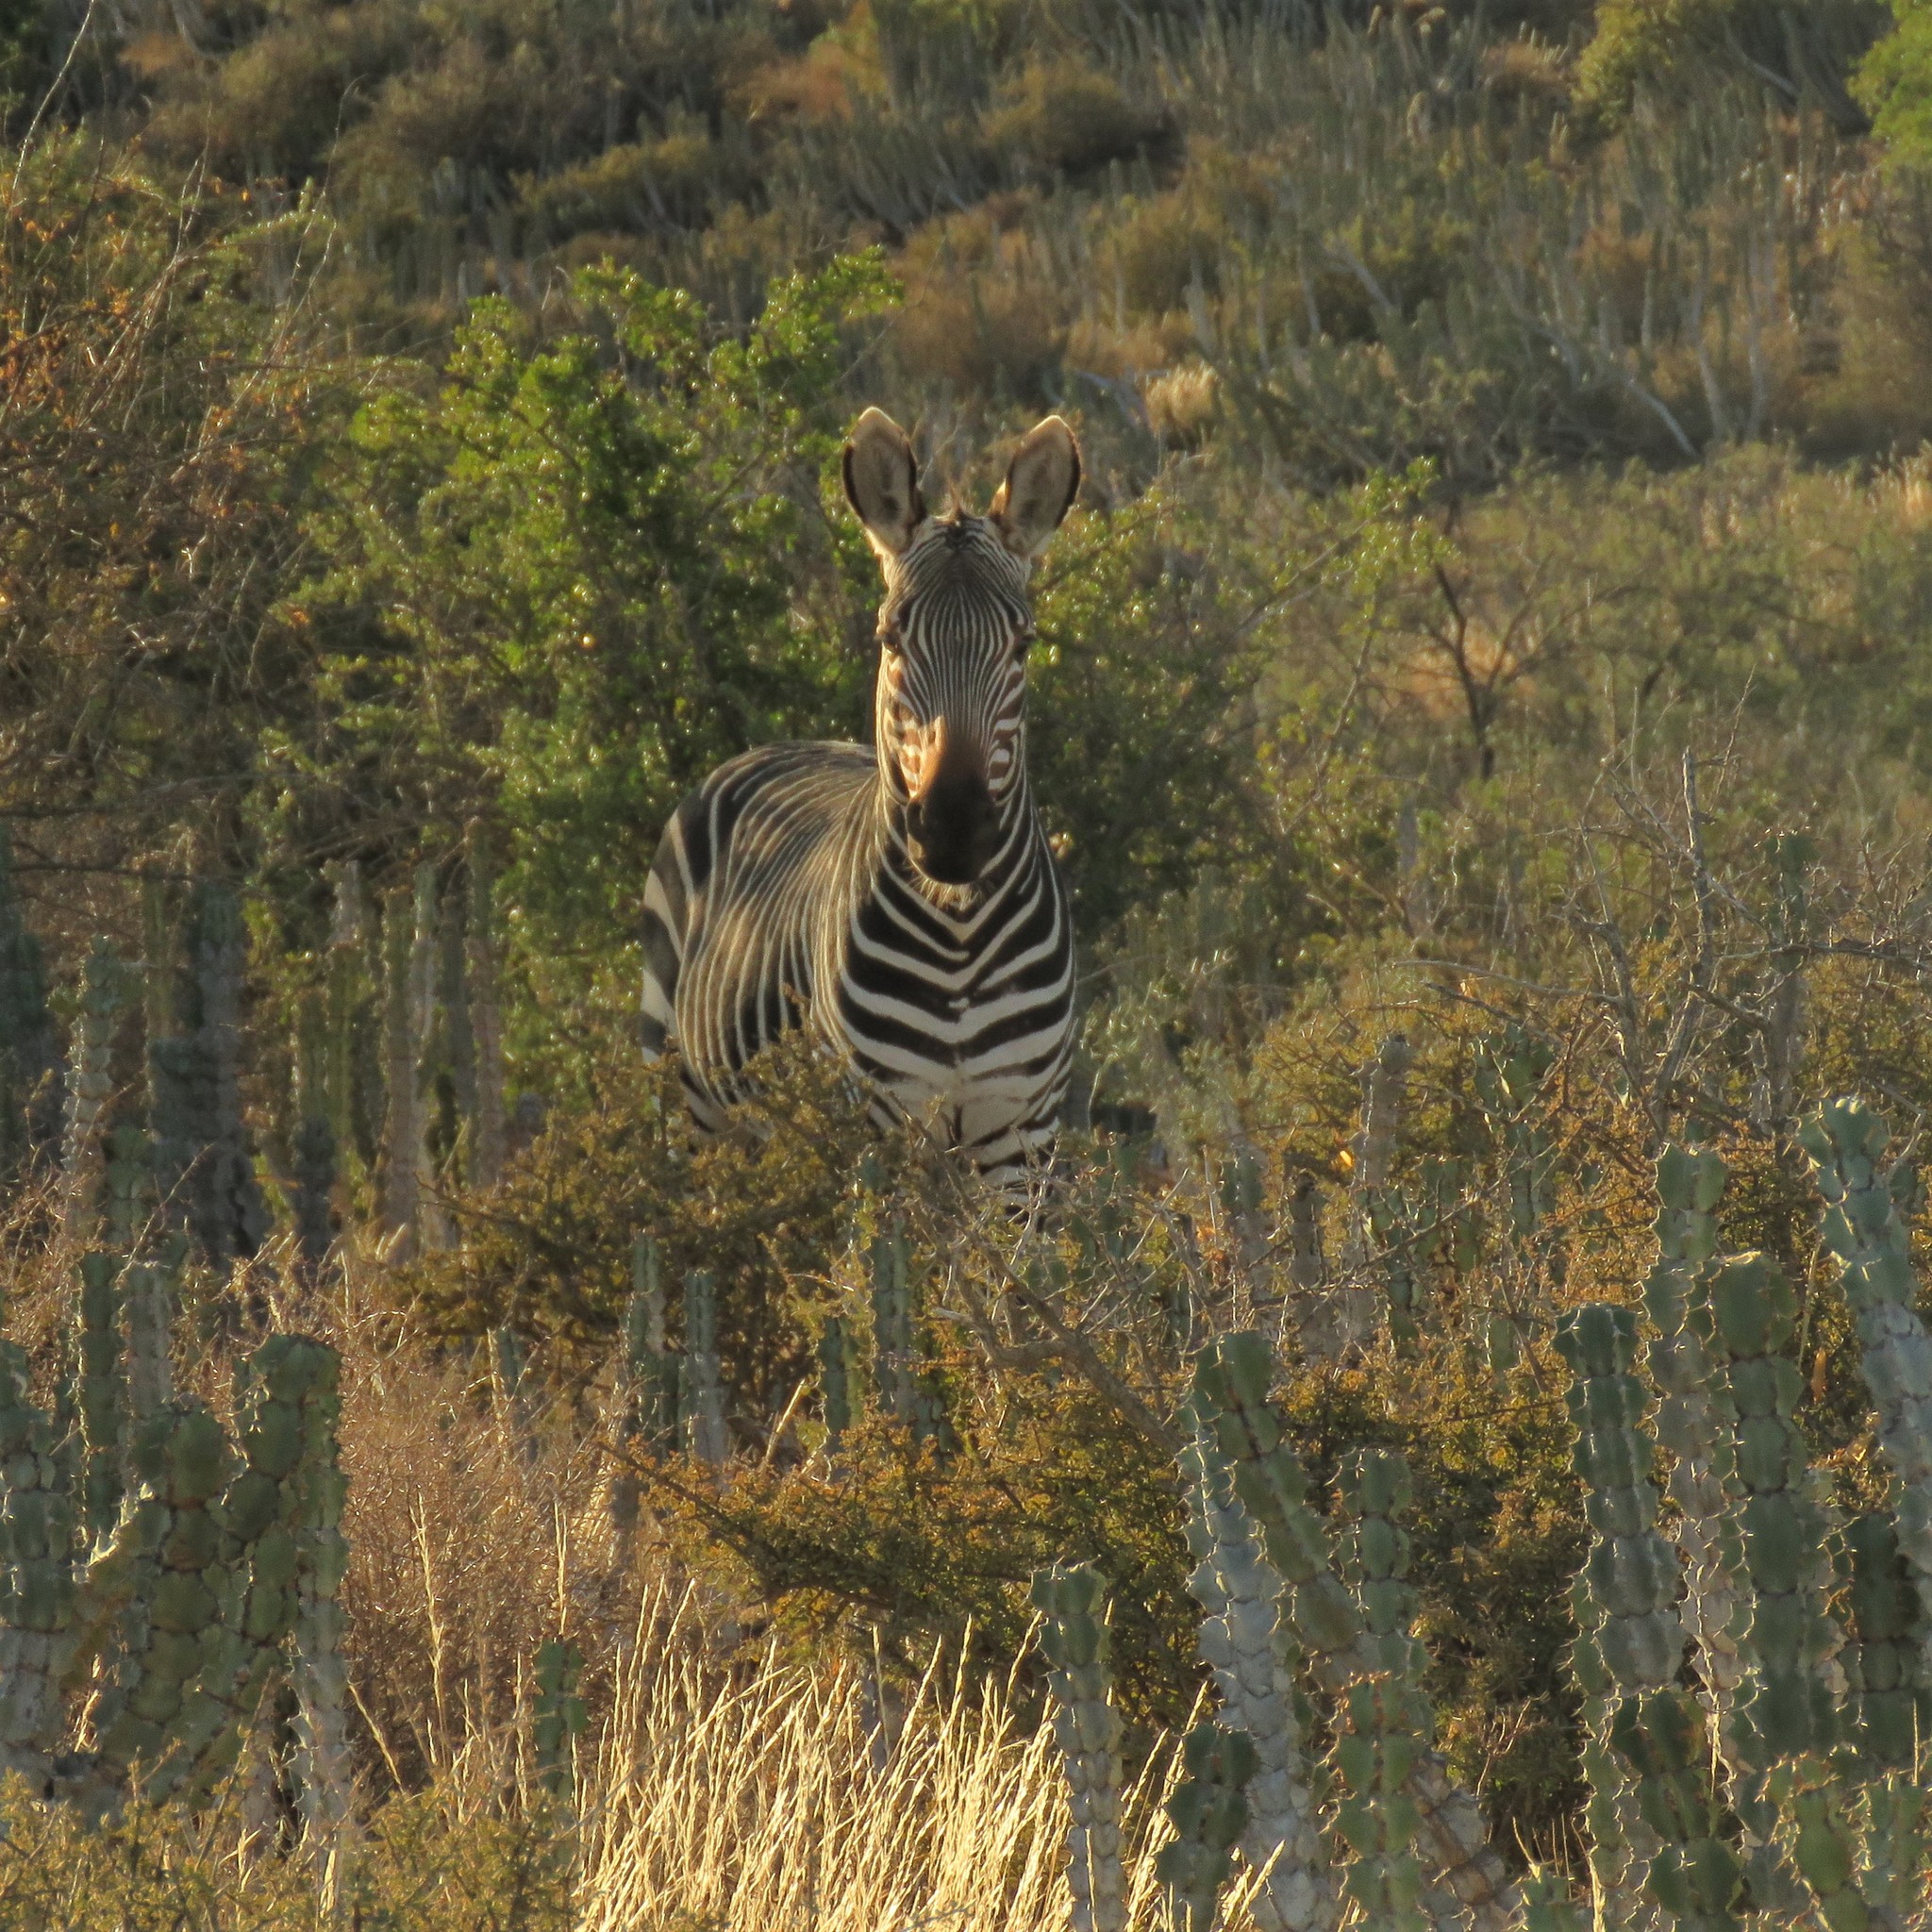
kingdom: Animalia
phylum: Chordata
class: Mammalia
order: Perissodactyla
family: Equidae
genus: Equus
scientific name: Equus zebra
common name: Mountain zebra
